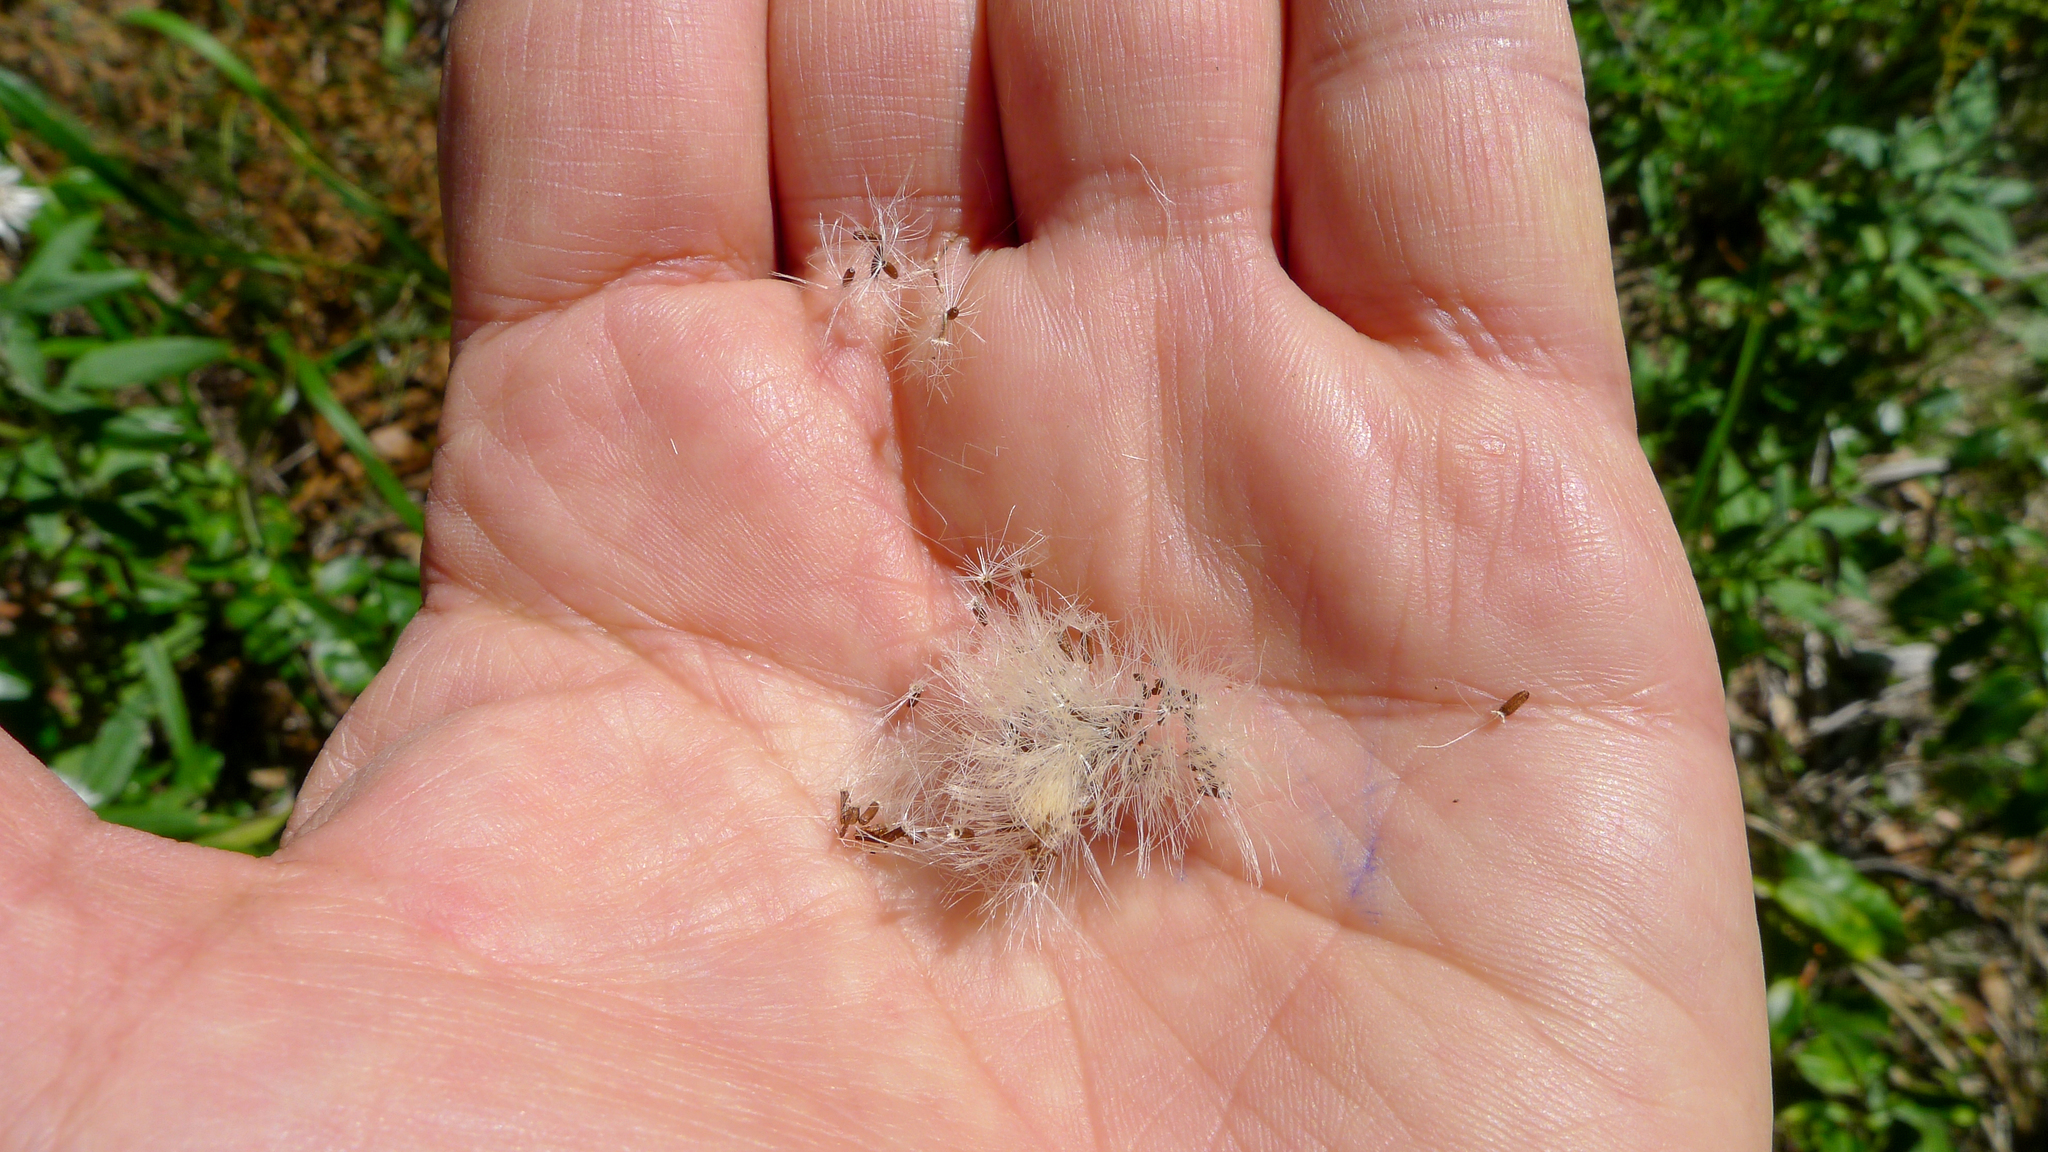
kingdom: Plantae
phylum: Tracheophyta
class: Magnoliopsida
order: Asterales
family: Asteraceae
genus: Leucozoma
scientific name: Leucozoma elatum
